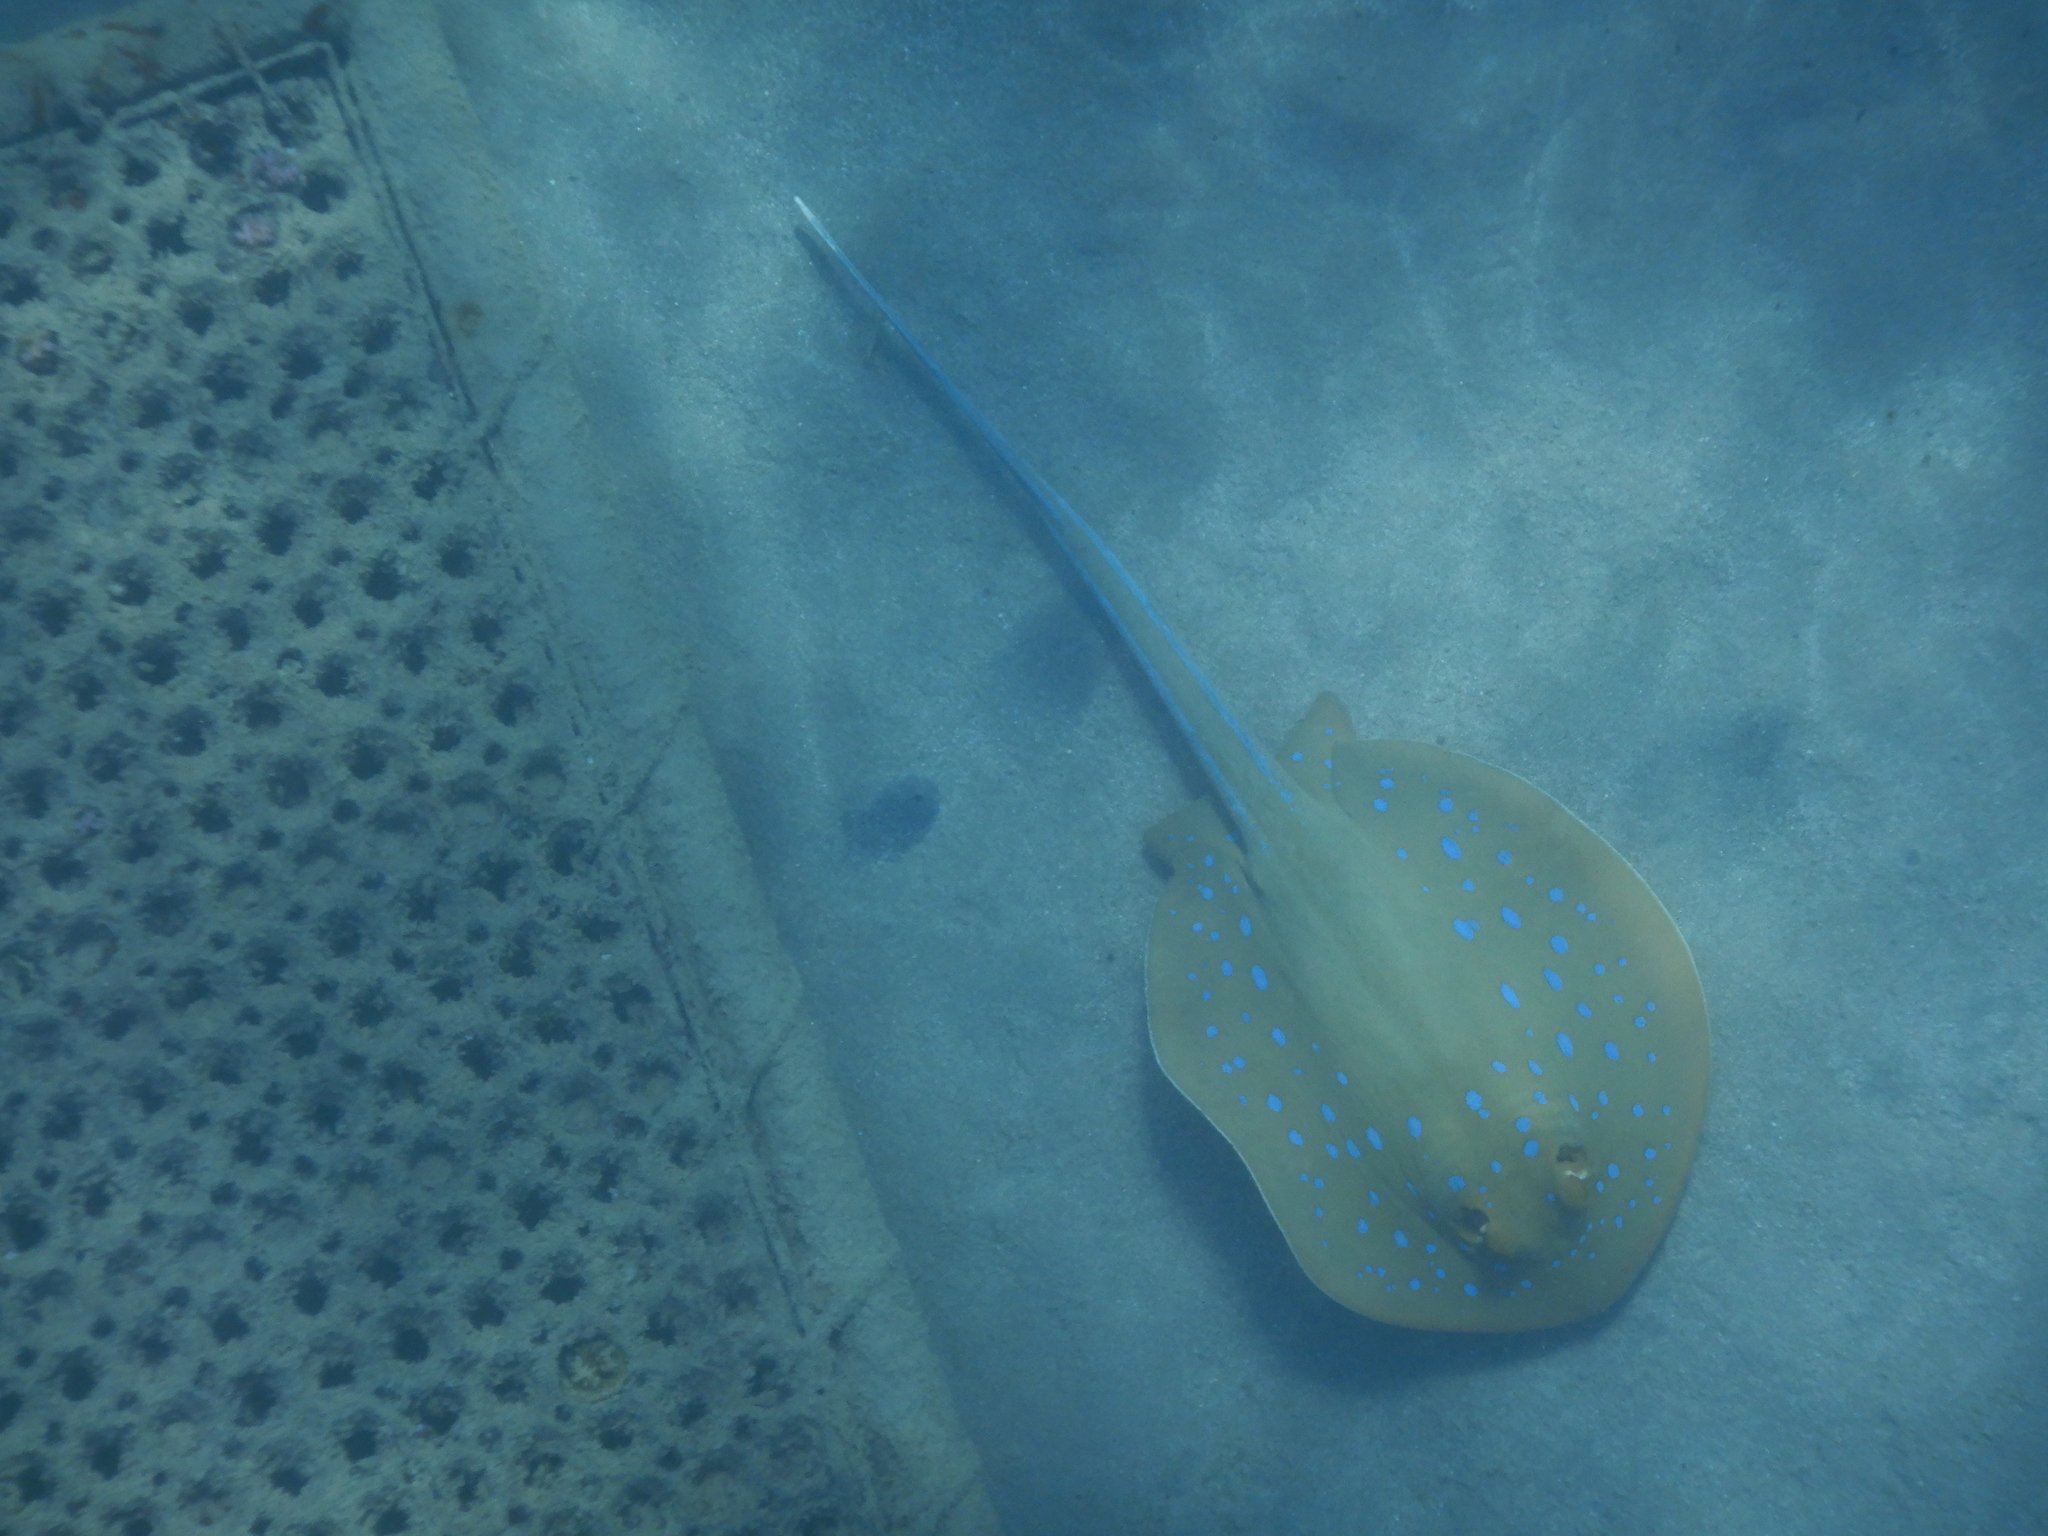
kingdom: Animalia
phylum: Chordata
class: Elasmobranchii
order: Myliobatiformes
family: Dasyatidae
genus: Taeniura
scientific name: Taeniura lymma
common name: Bluespotted ribbontail ray
